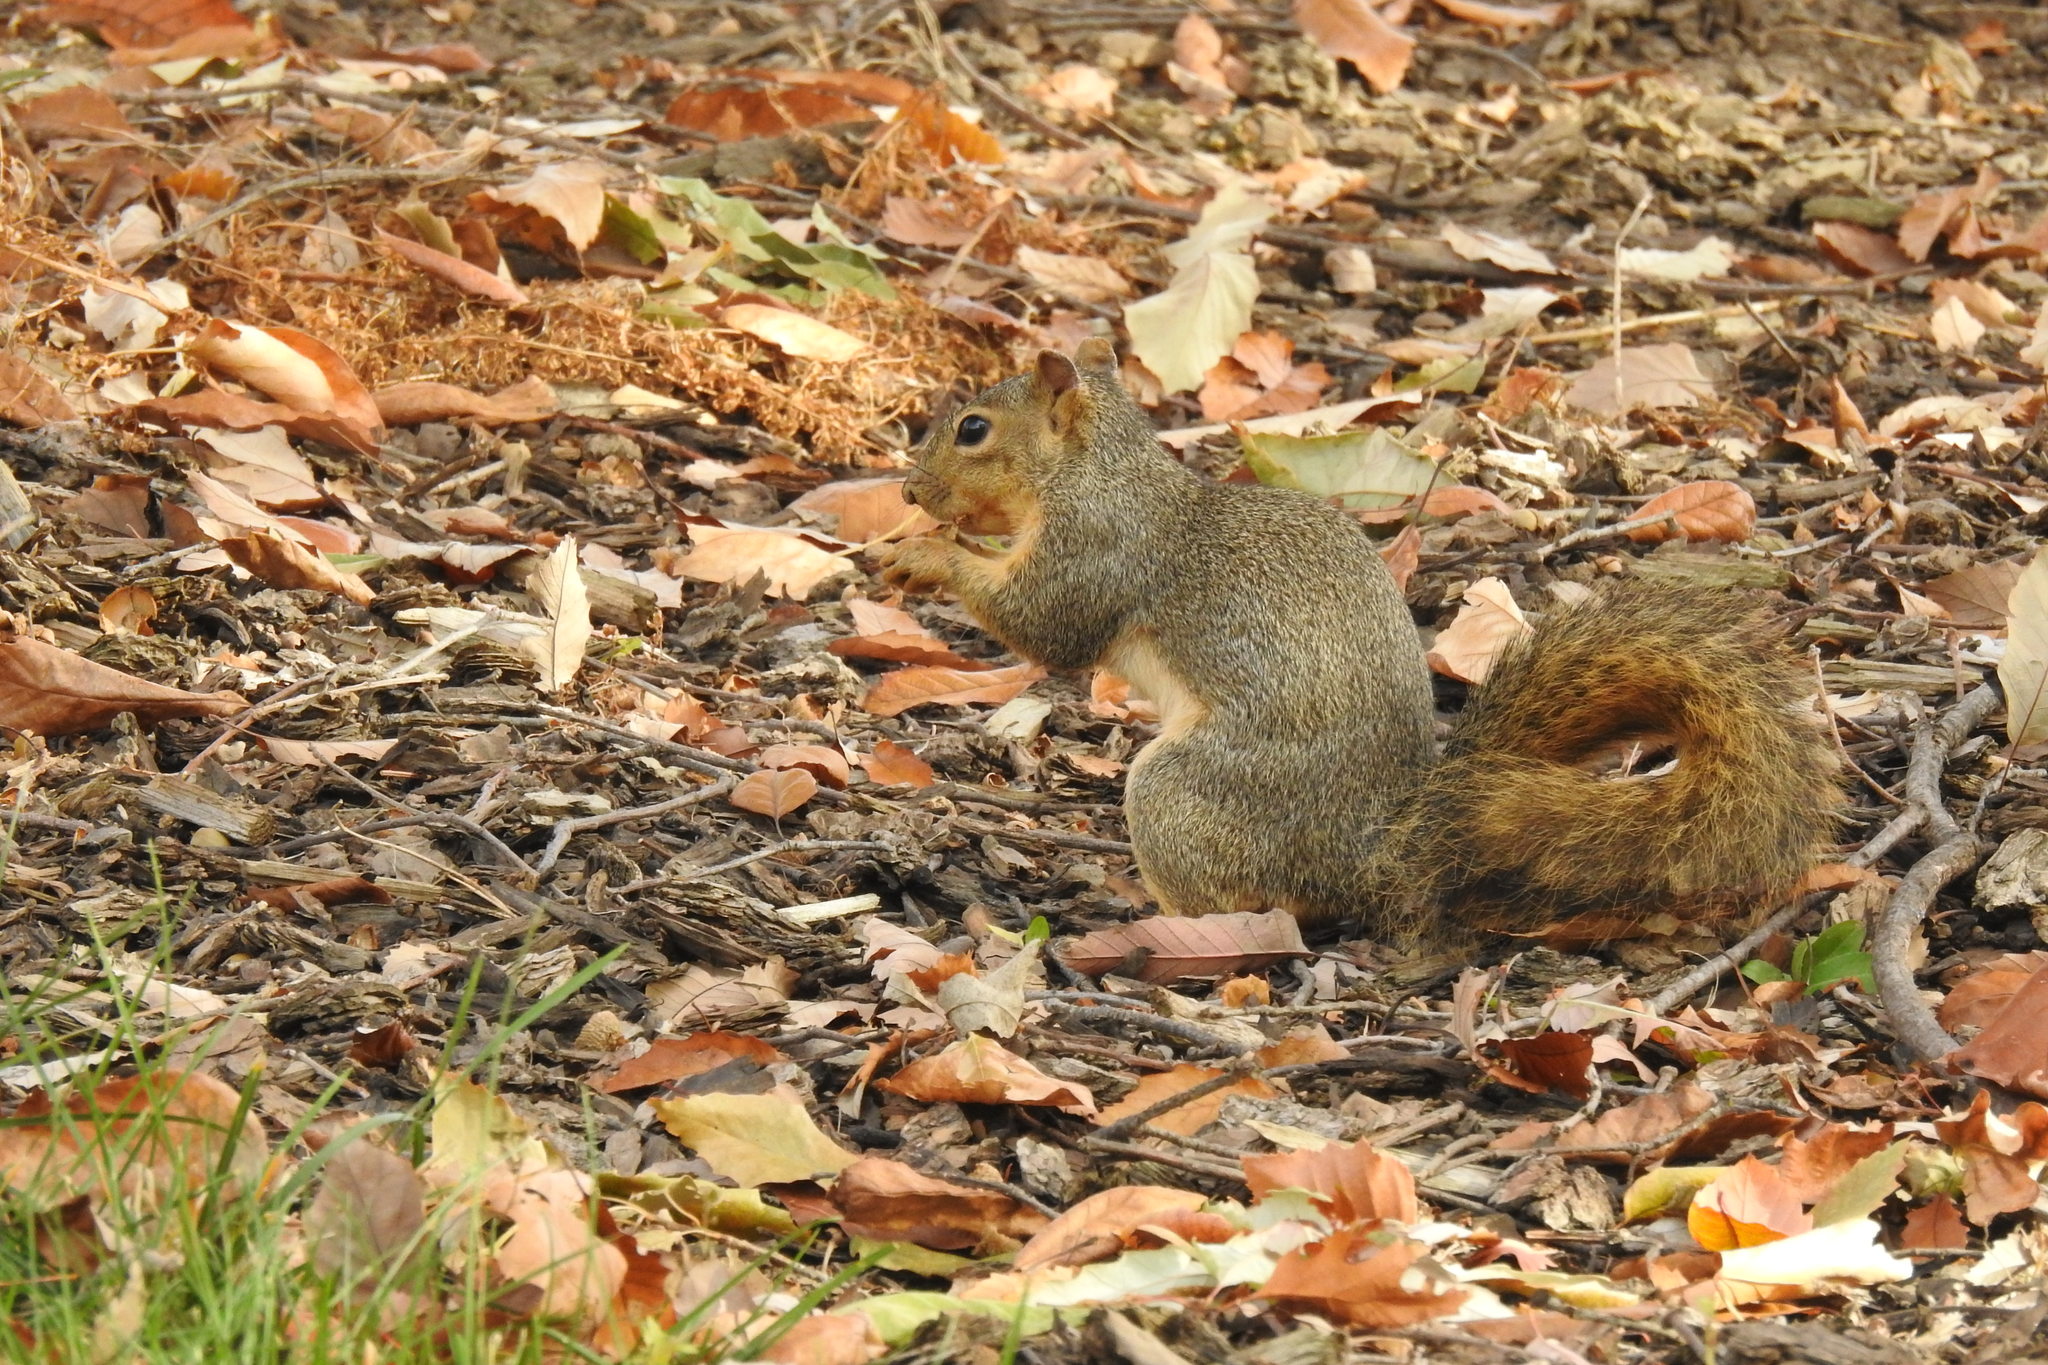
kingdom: Animalia
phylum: Chordata
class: Mammalia
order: Rodentia
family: Sciuridae
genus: Sciurus
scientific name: Sciurus niger
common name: Fox squirrel
